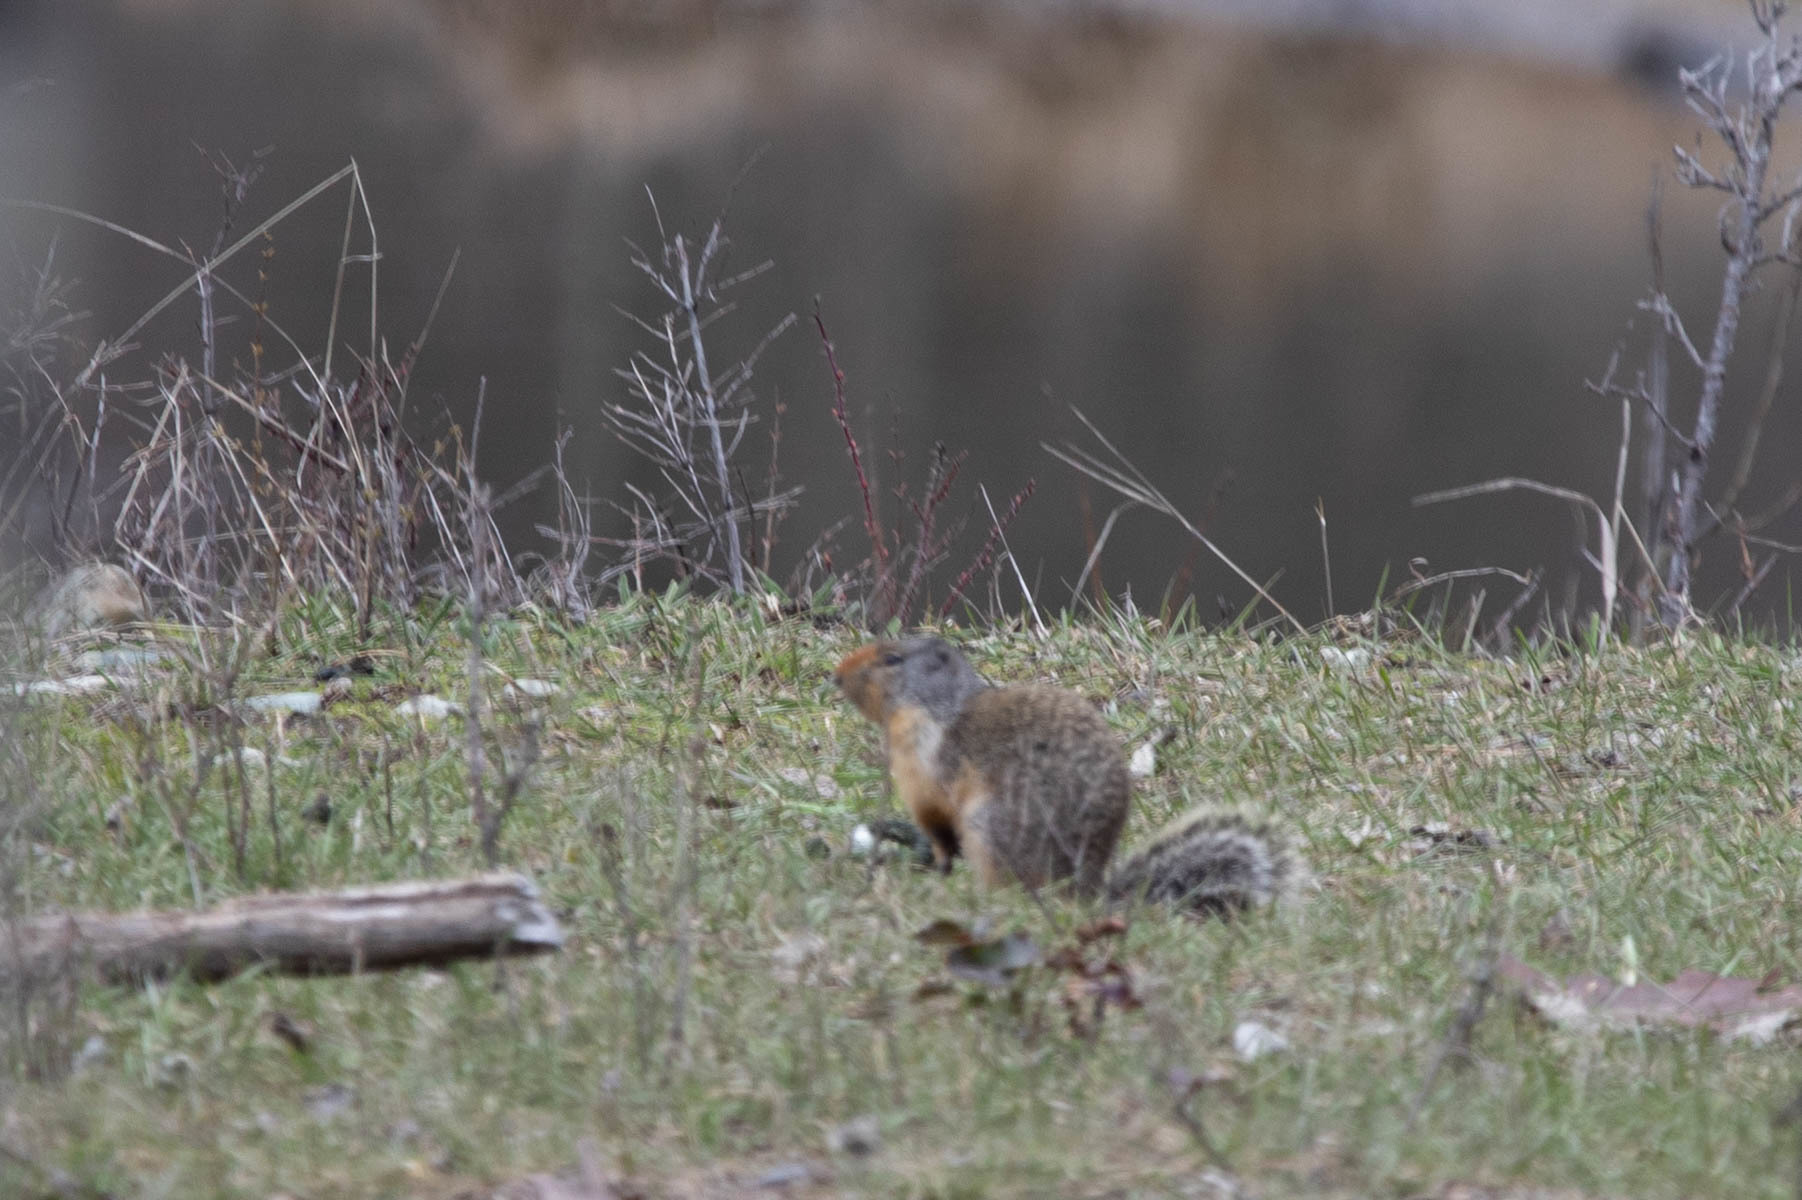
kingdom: Animalia
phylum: Chordata
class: Mammalia
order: Rodentia
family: Sciuridae
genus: Urocitellus
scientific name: Urocitellus columbianus
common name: Columbian ground squirrel
